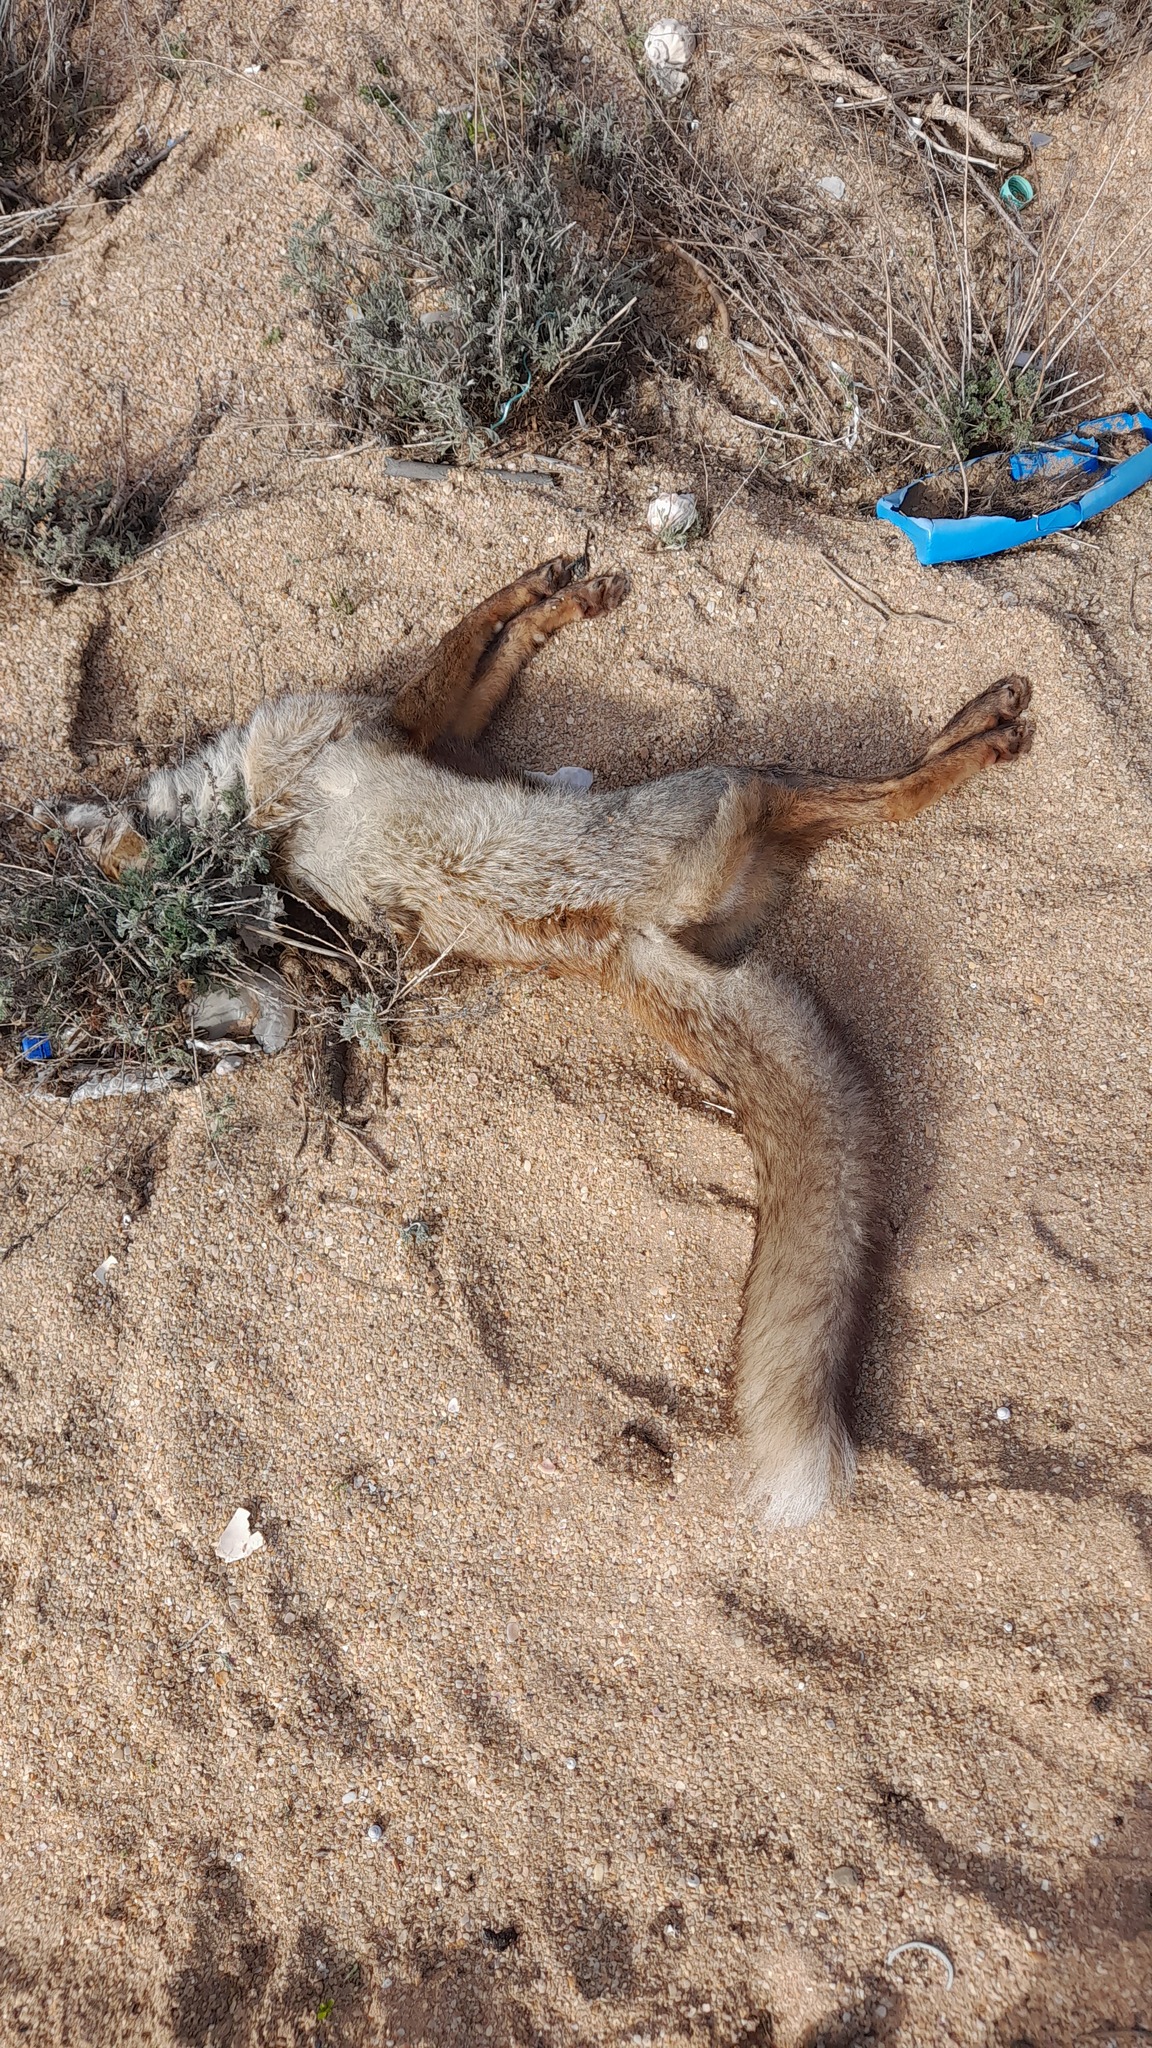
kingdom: Animalia
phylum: Chordata
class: Mammalia
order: Carnivora
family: Canidae
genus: Vulpes
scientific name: Vulpes vulpes
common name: Red fox
